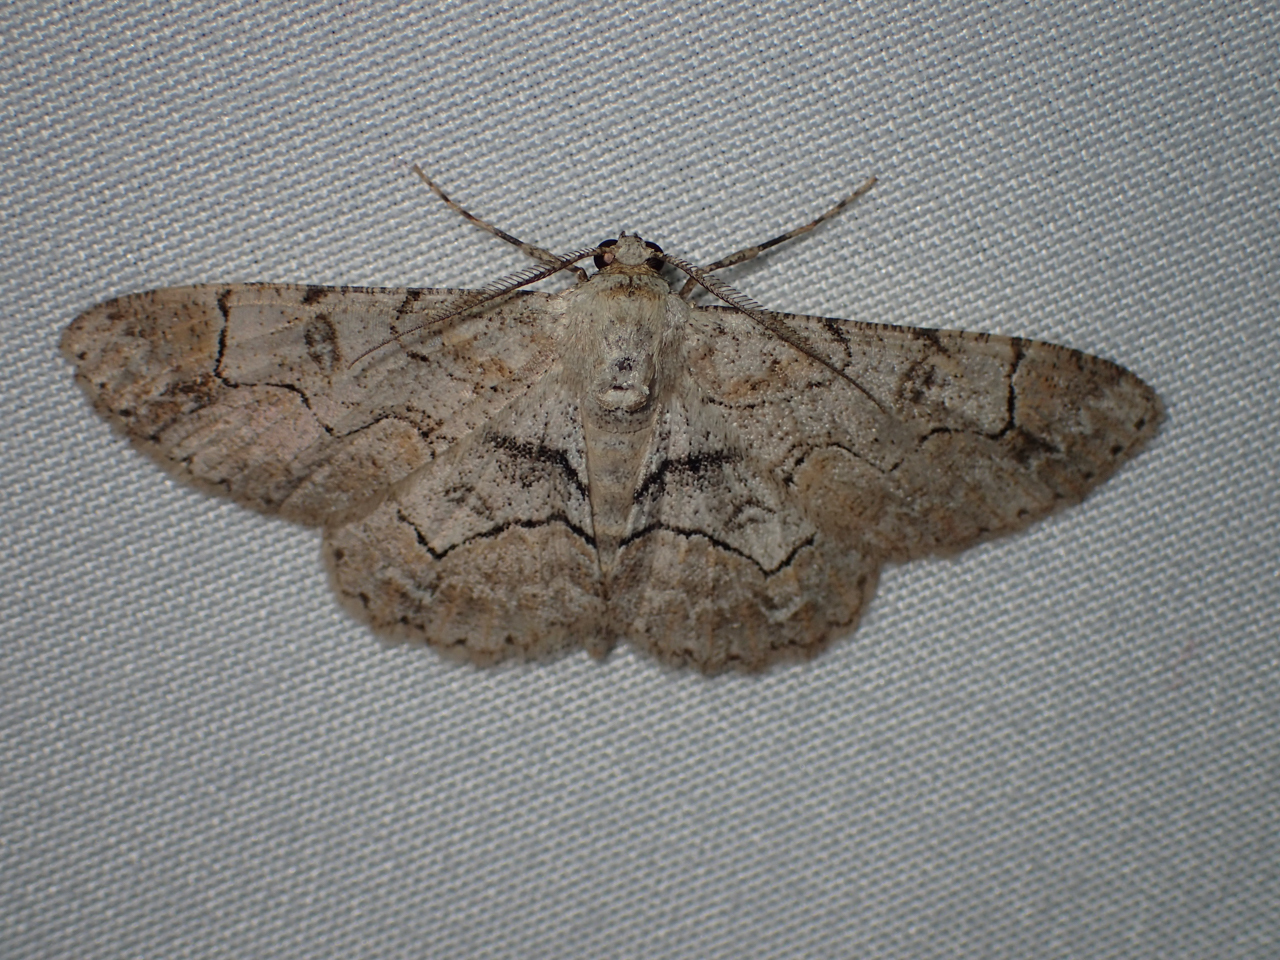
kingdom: Animalia
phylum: Arthropoda
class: Insecta
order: Lepidoptera
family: Geometridae
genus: Iridopsis
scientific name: Iridopsis larvaria
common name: Bent-line gray
